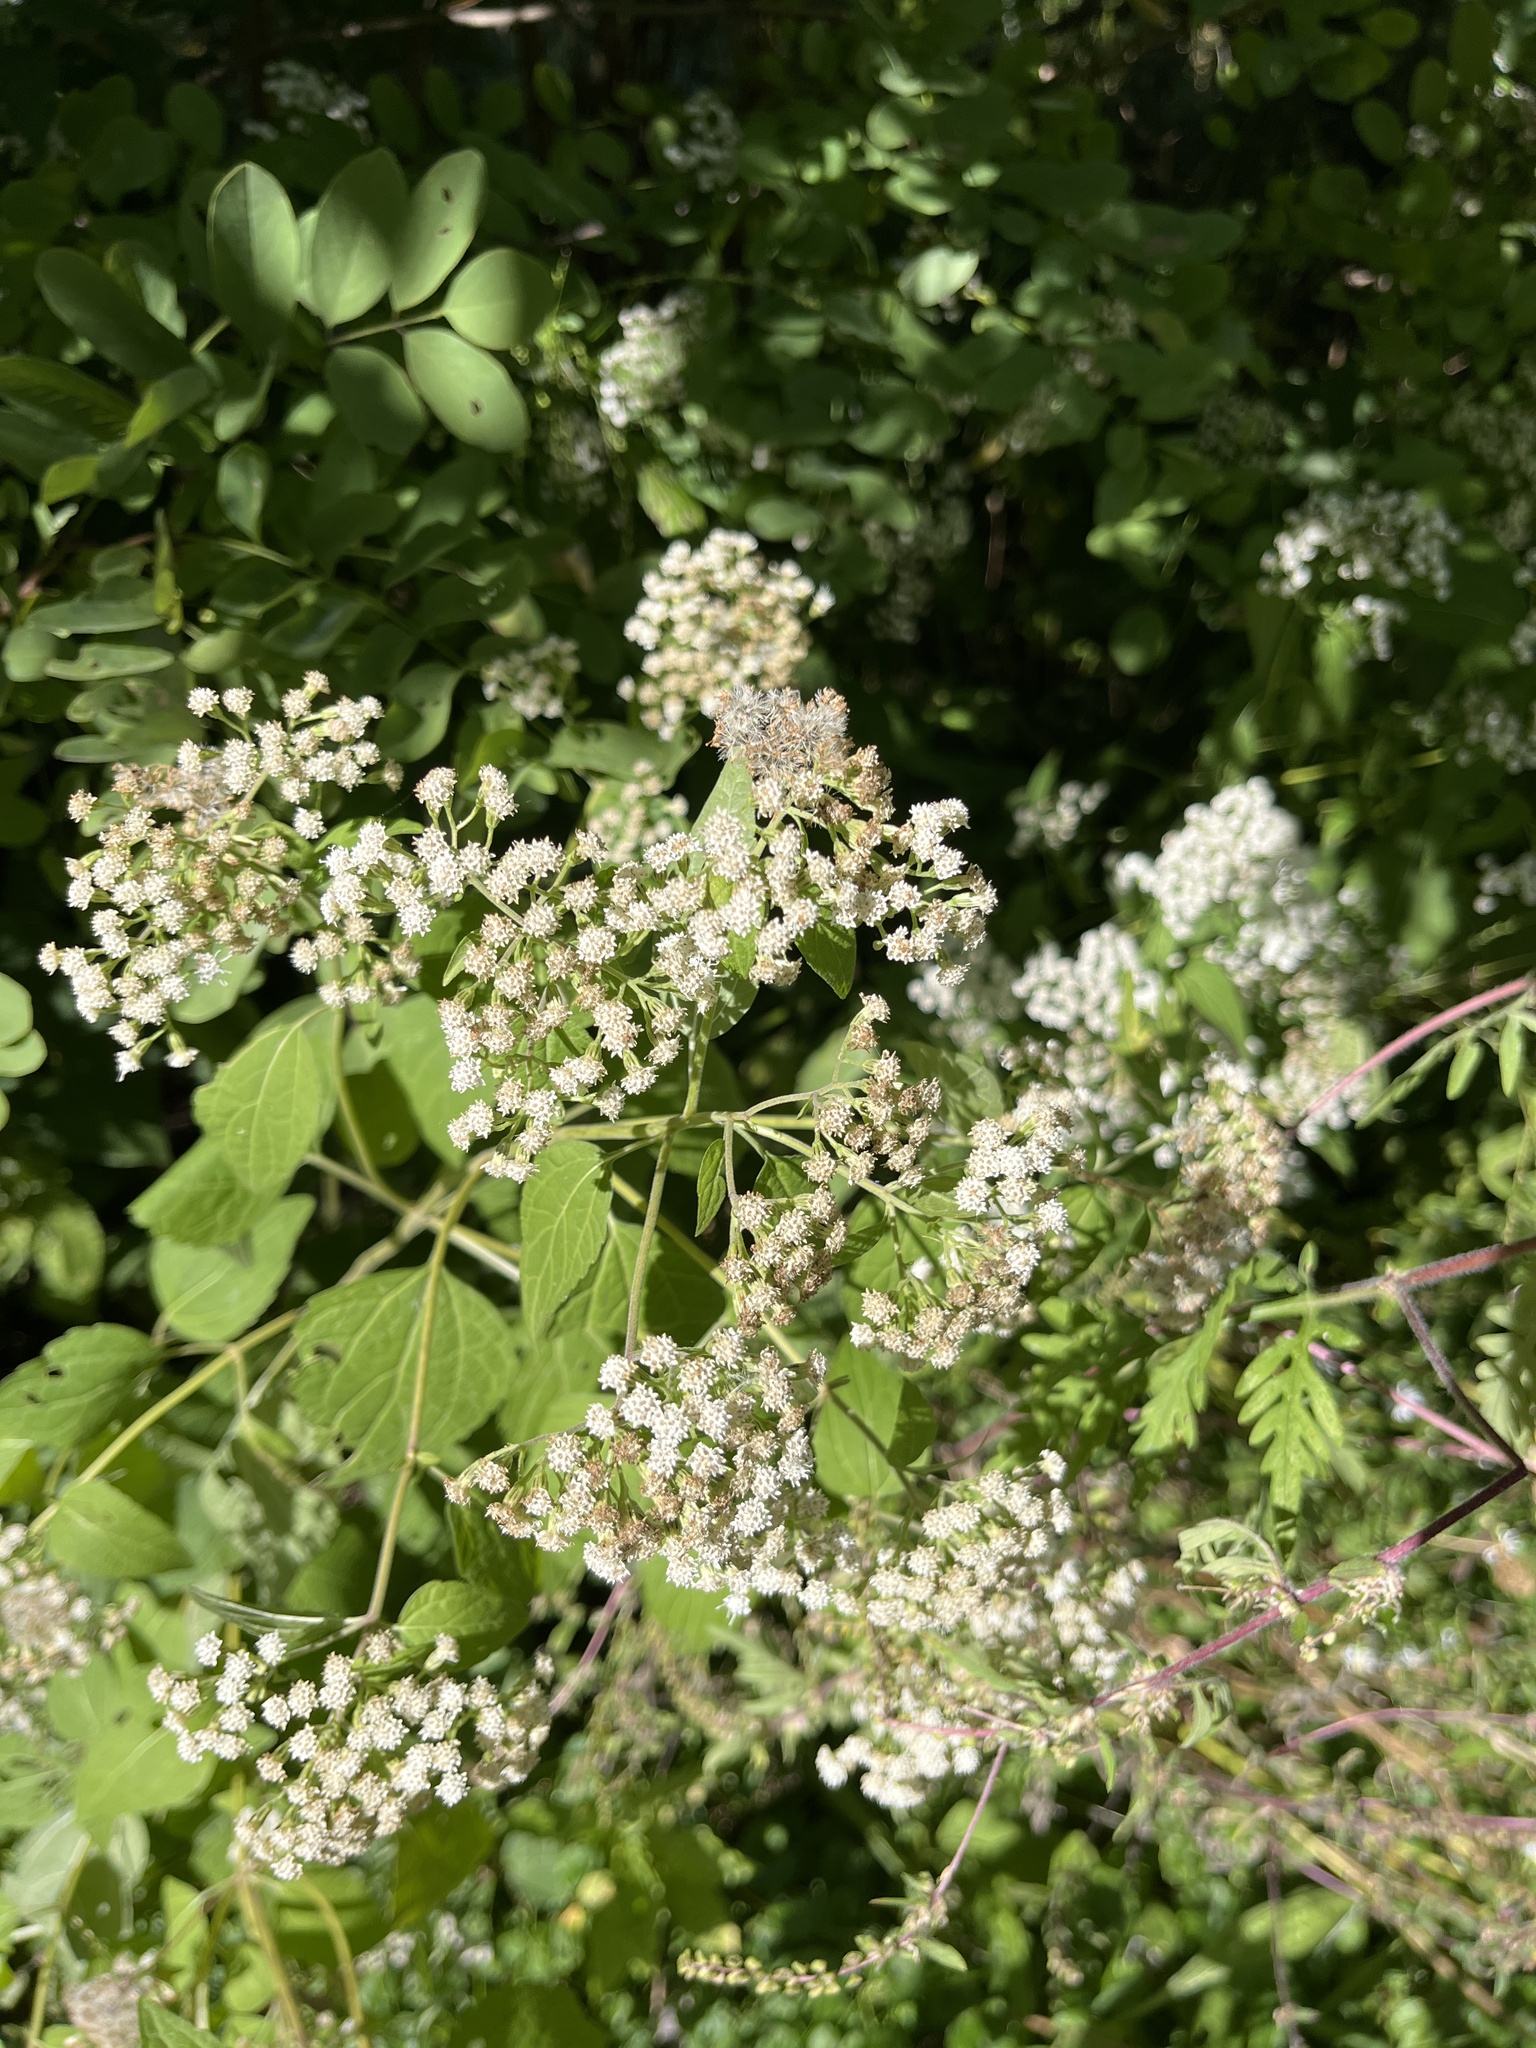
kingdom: Plantae
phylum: Tracheophyta
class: Magnoliopsida
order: Asterales
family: Asteraceae
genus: Ageratina
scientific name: Ageratina altissima
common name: White snakeroot
